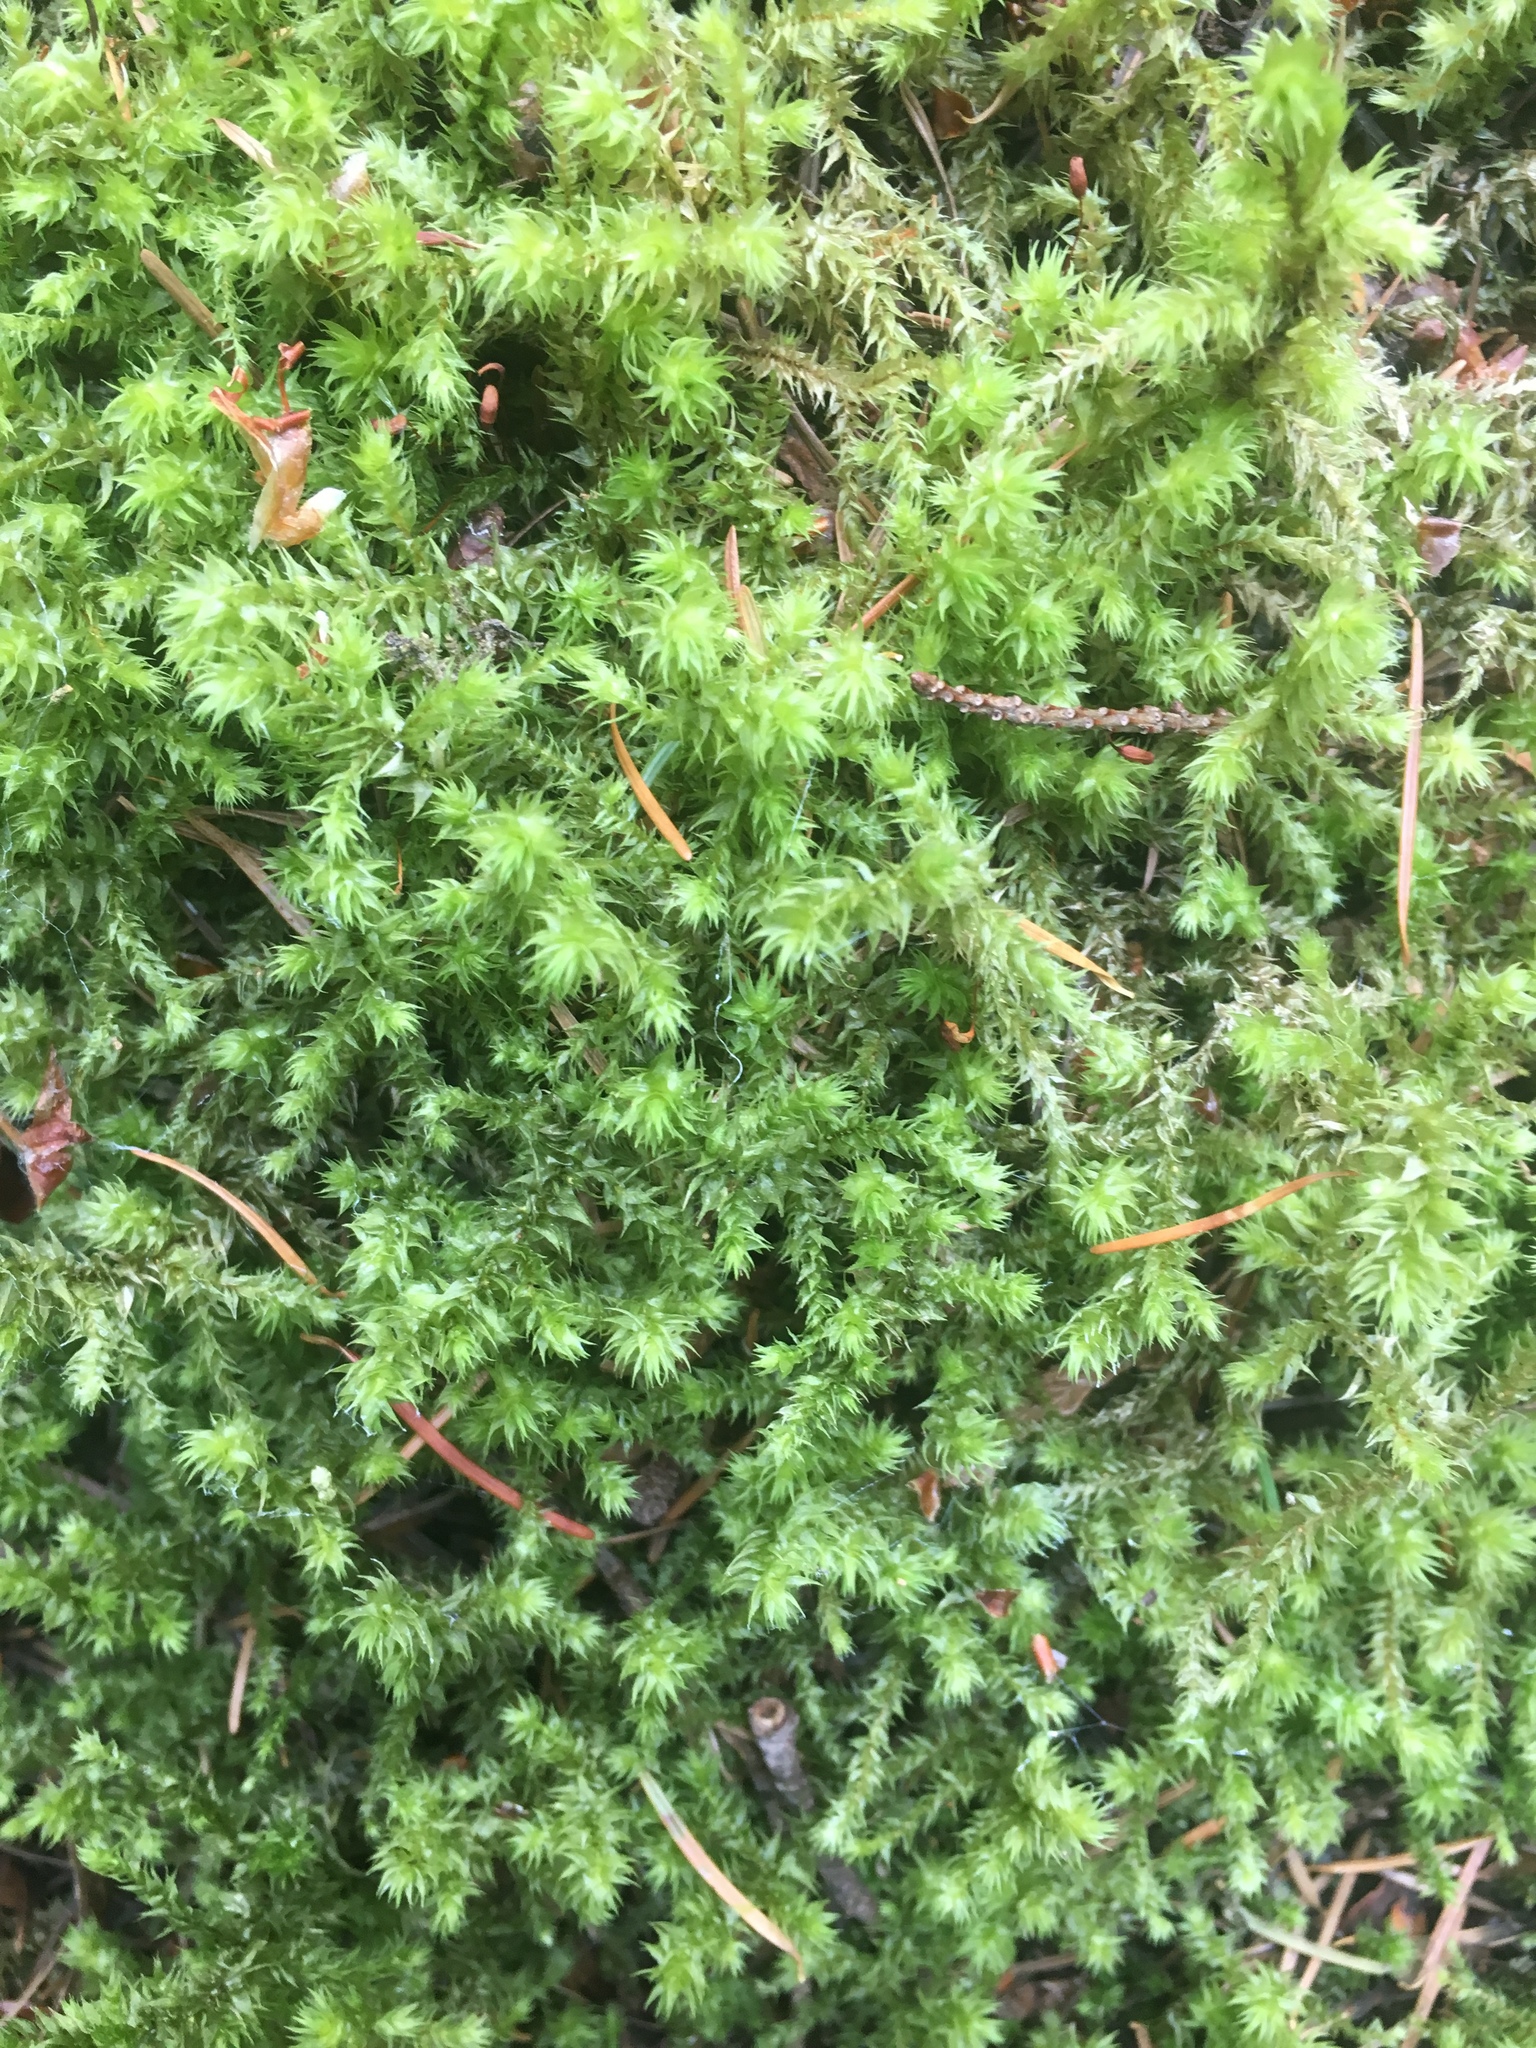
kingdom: Plantae
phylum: Bryophyta
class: Bryopsida
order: Hypnales
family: Hylocomiaceae
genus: Hylocomiadelphus
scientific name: Hylocomiadelphus triquetrus
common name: Rough goose neck moss
